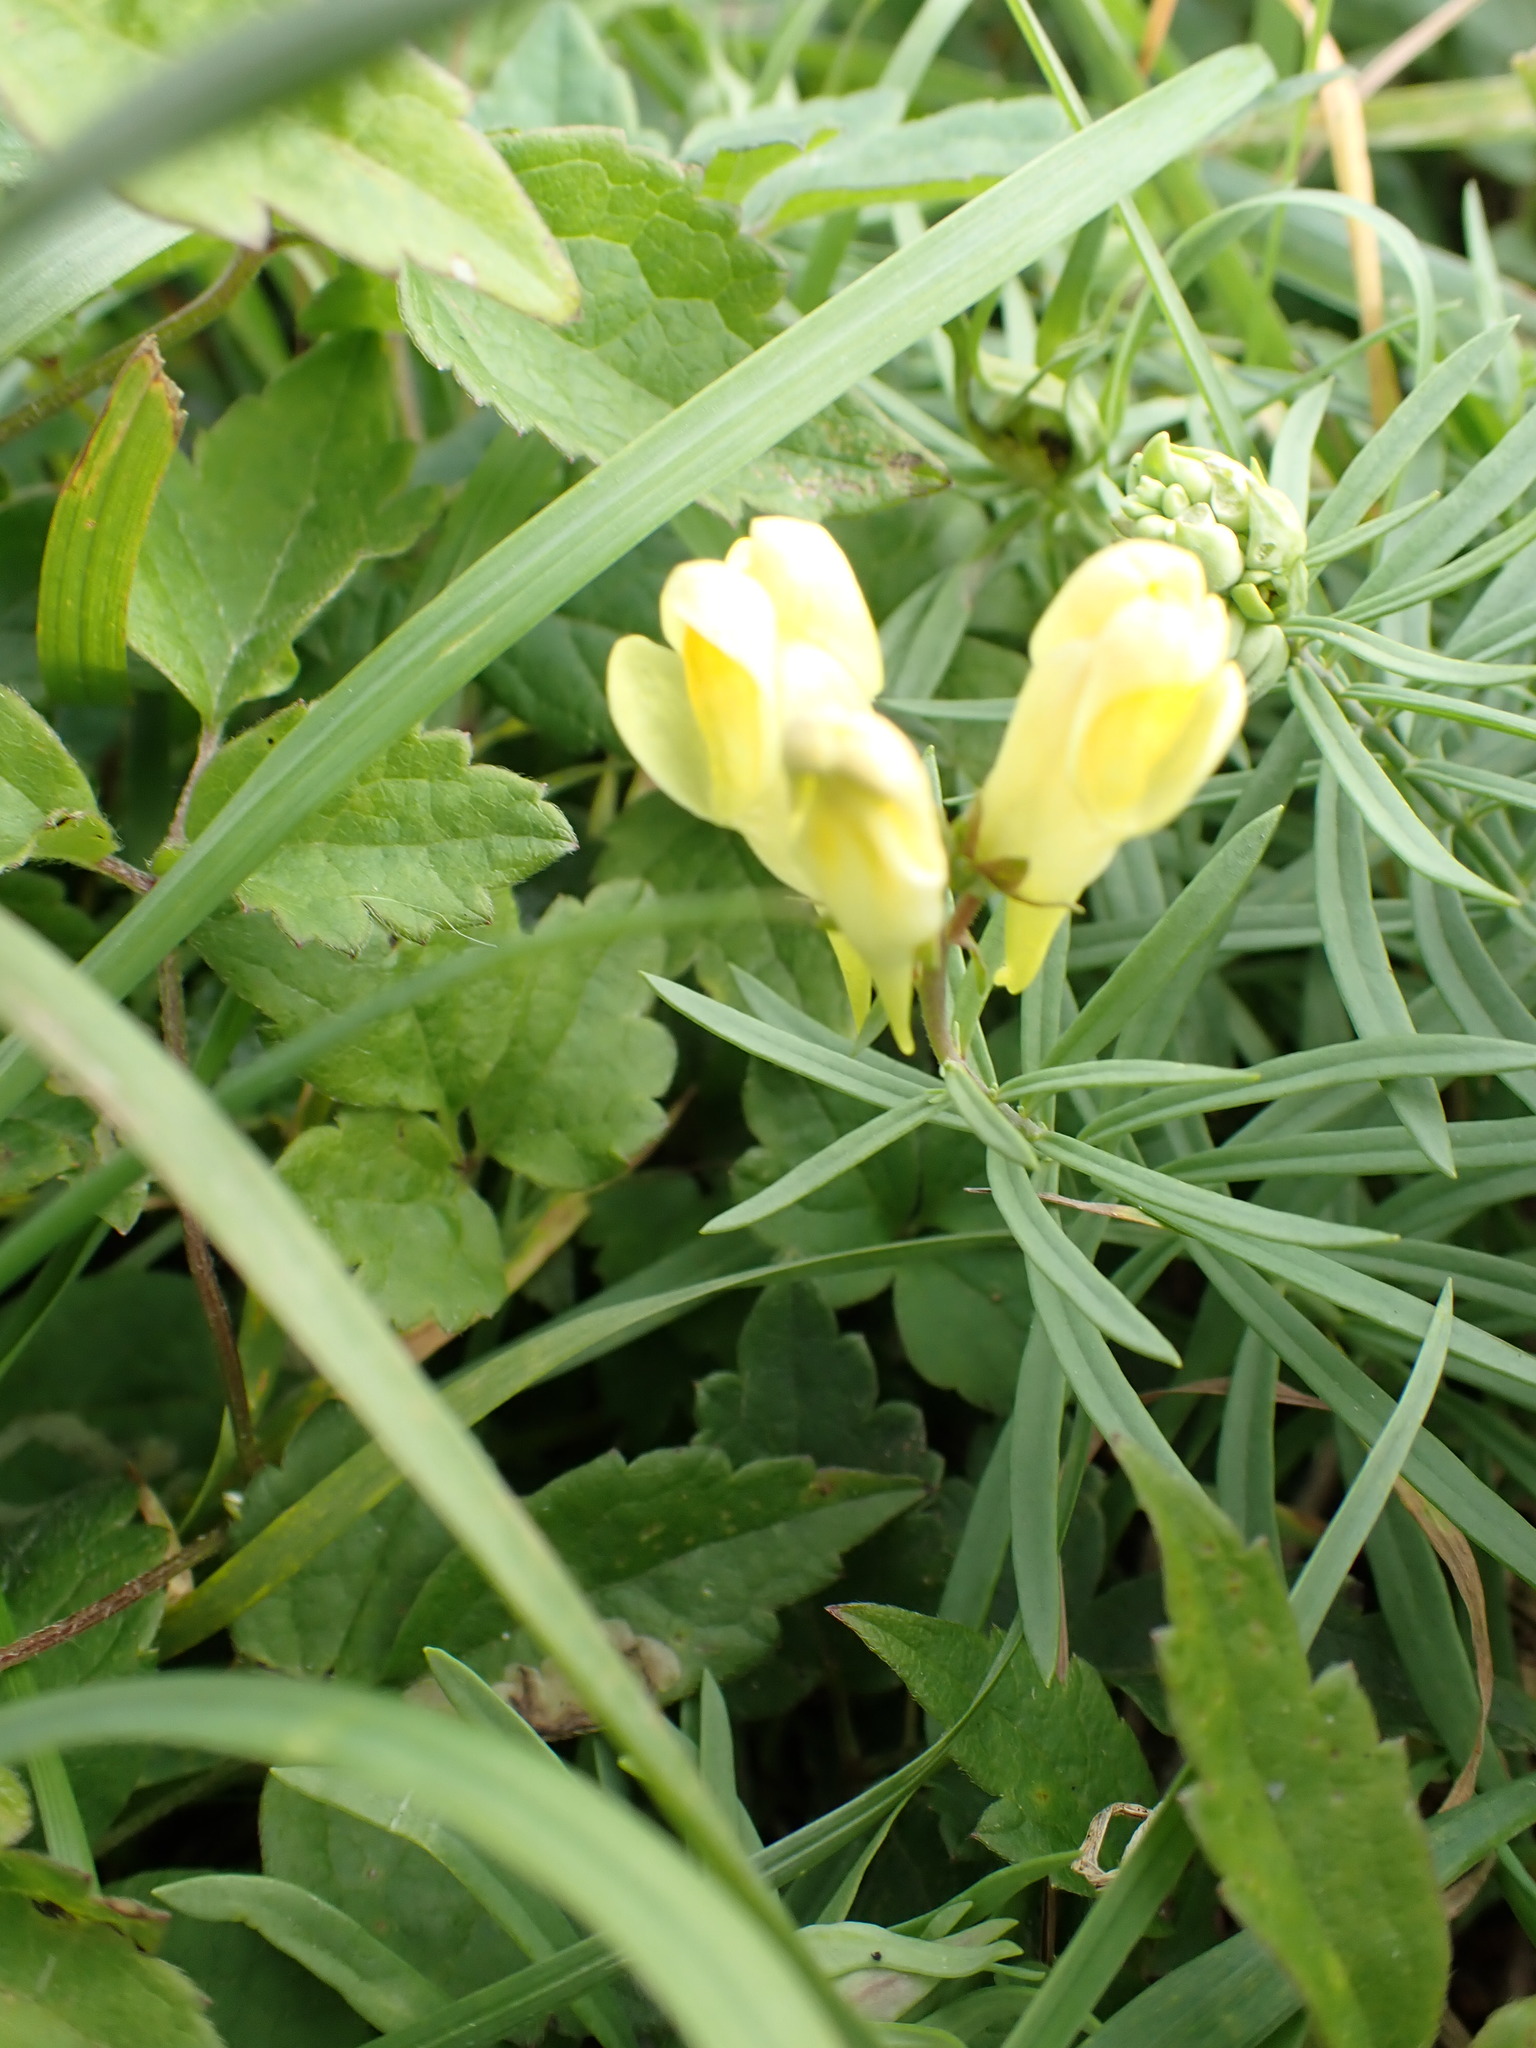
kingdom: Plantae
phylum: Tracheophyta
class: Magnoliopsida
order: Lamiales
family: Plantaginaceae
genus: Linaria
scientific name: Linaria vulgaris
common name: Butter and eggs
